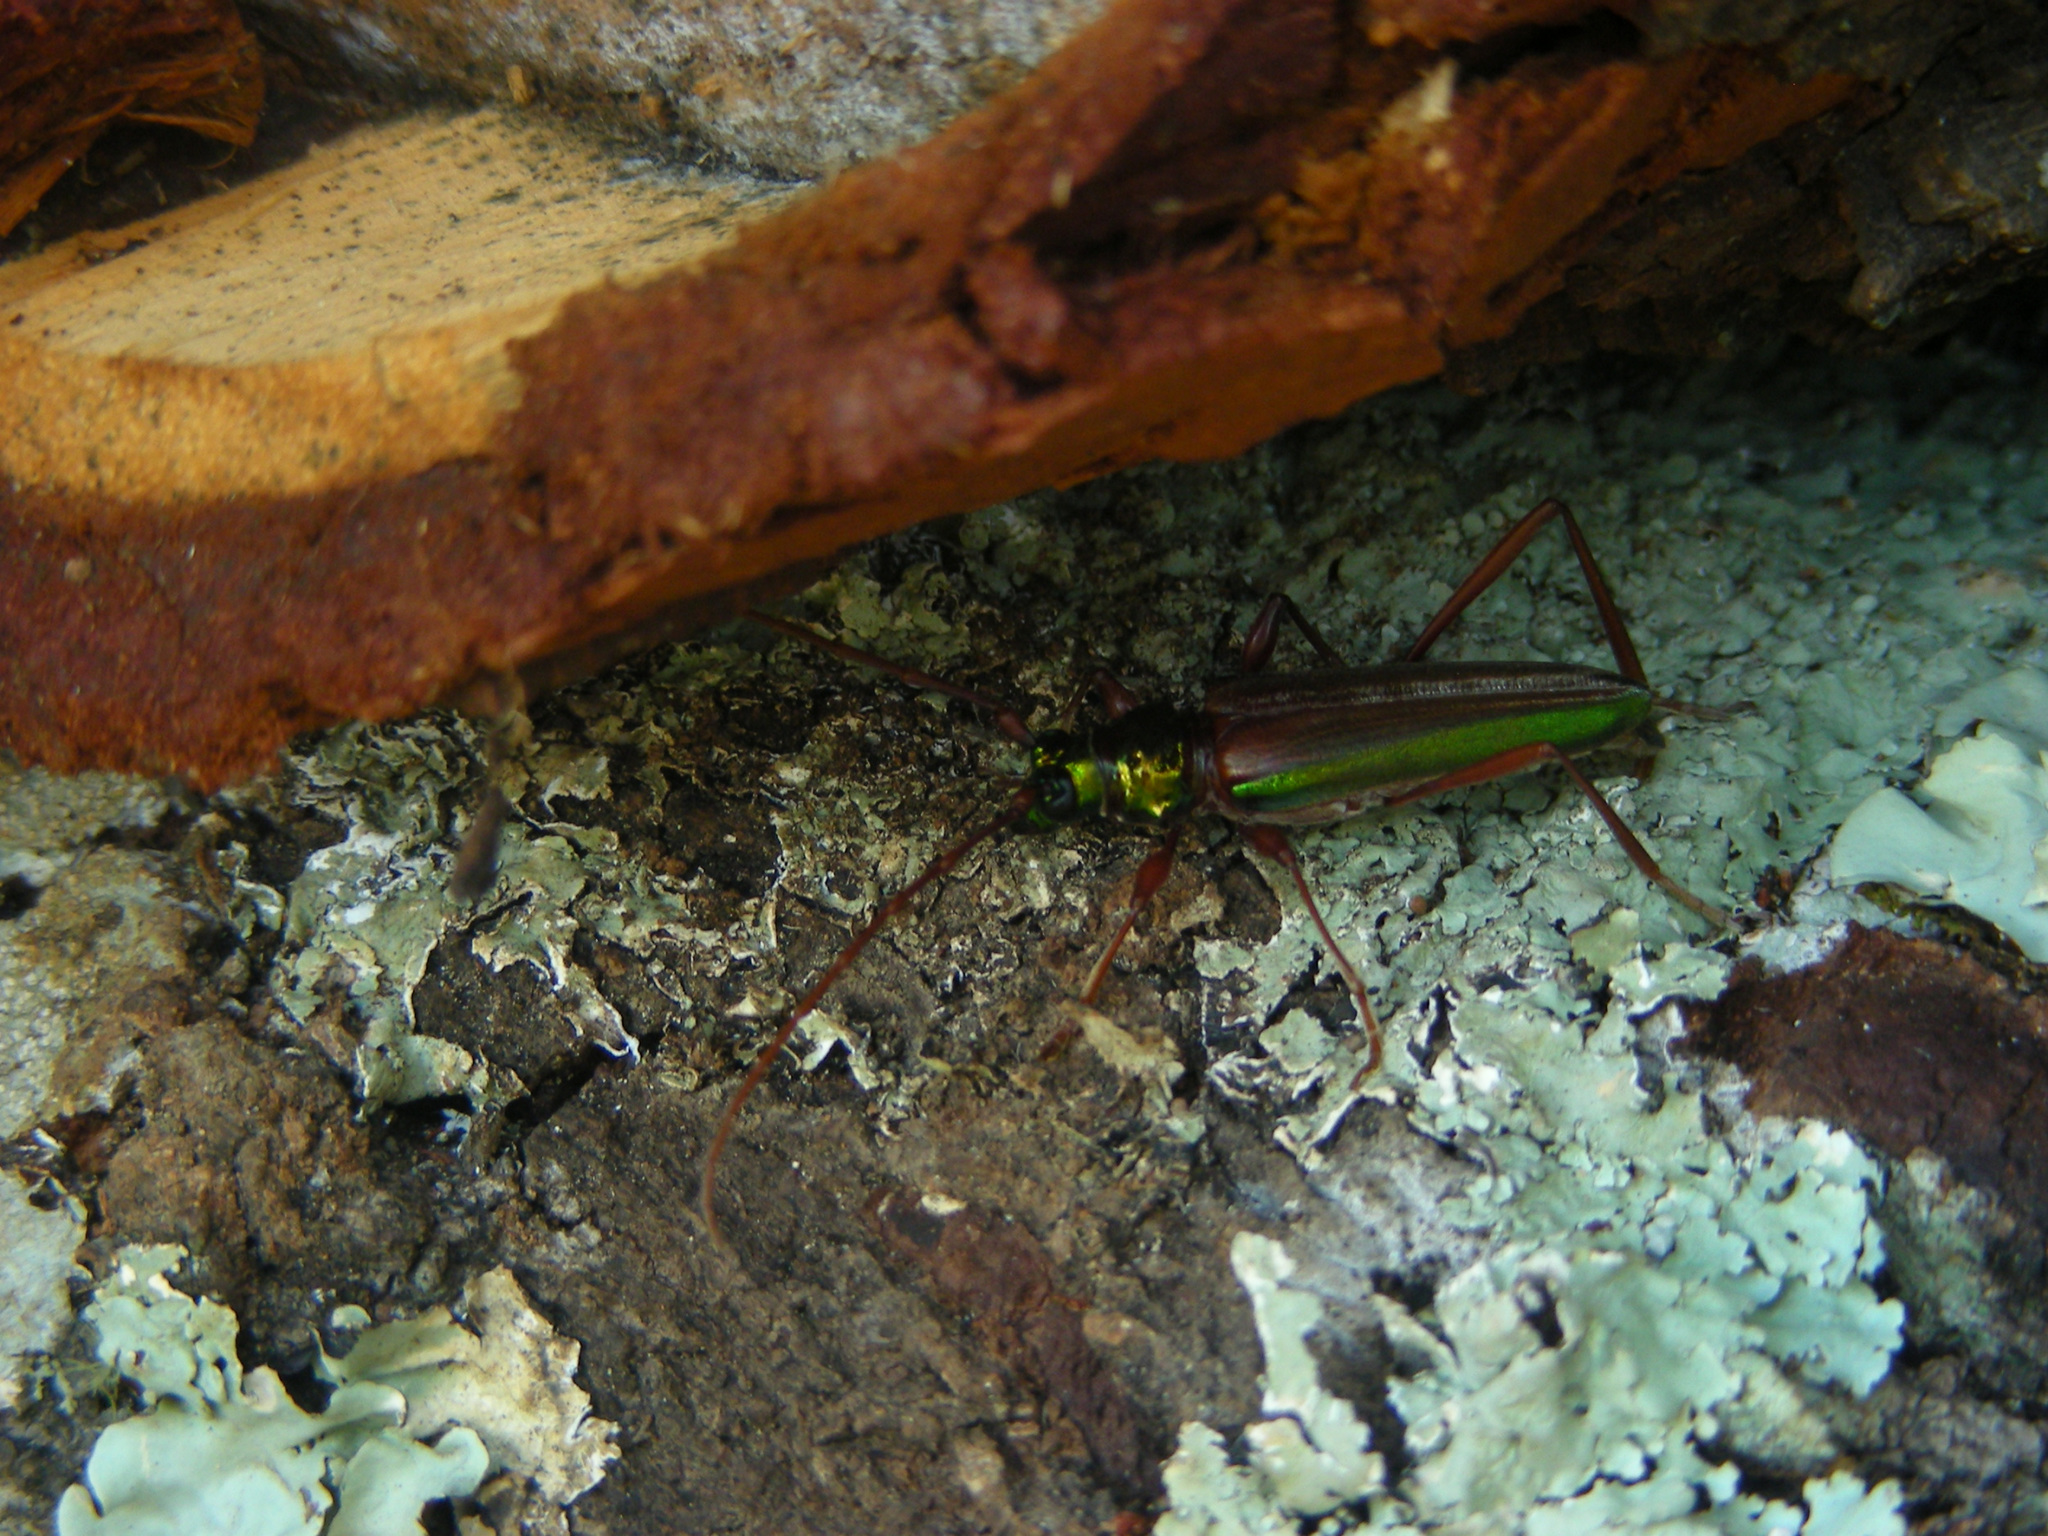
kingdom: Animalia
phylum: Arthropoda
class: Insecta
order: Coleoptera
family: Cerambycidae
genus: Chromalizus
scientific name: Chromalizus leucorhaphis
